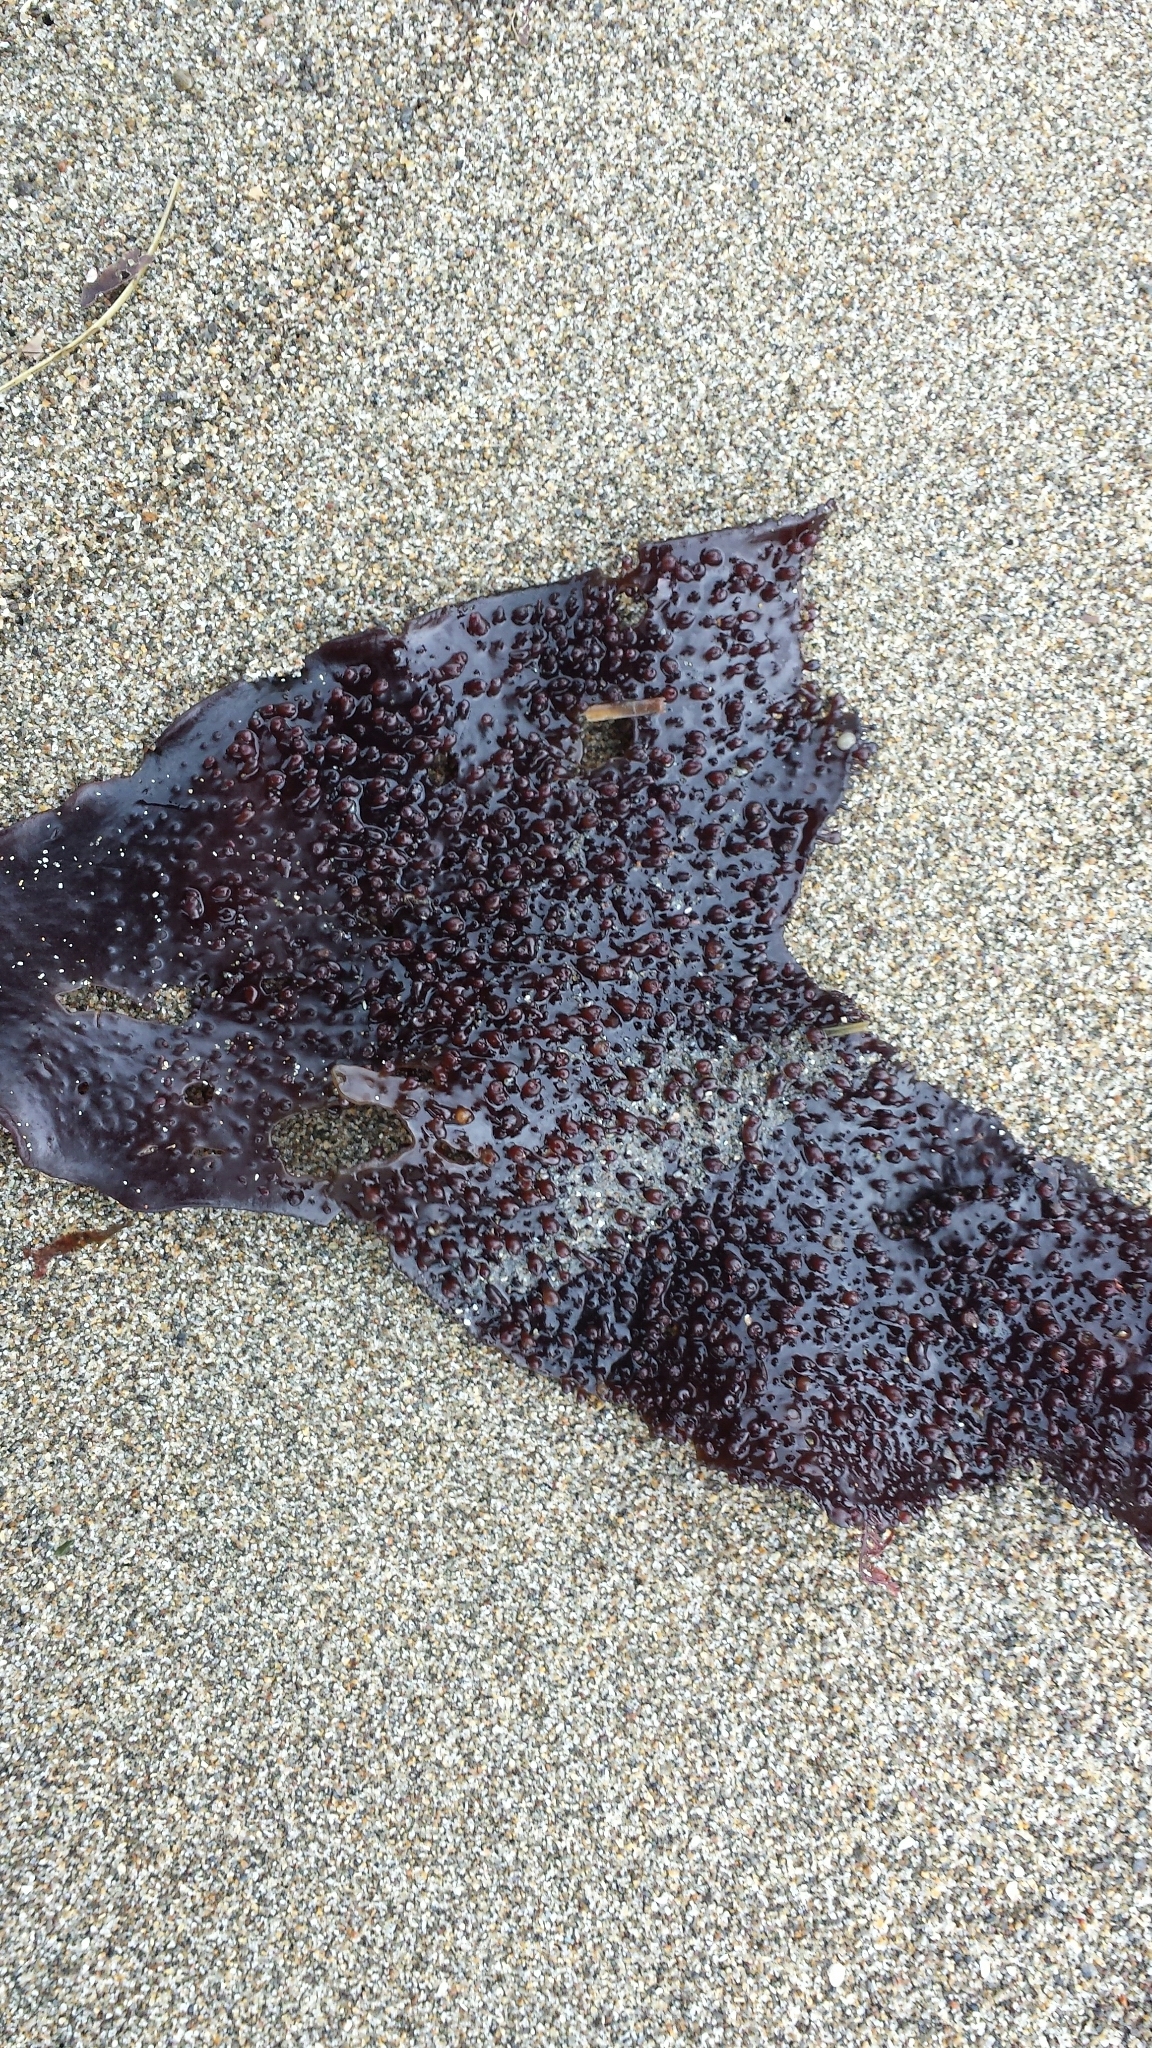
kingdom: Plantae
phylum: Rhodophyta
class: Florideophyceae
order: Gigartinales
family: Gigartinaceae
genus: Chondracanthus
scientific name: Chondracanthus exasperatus
